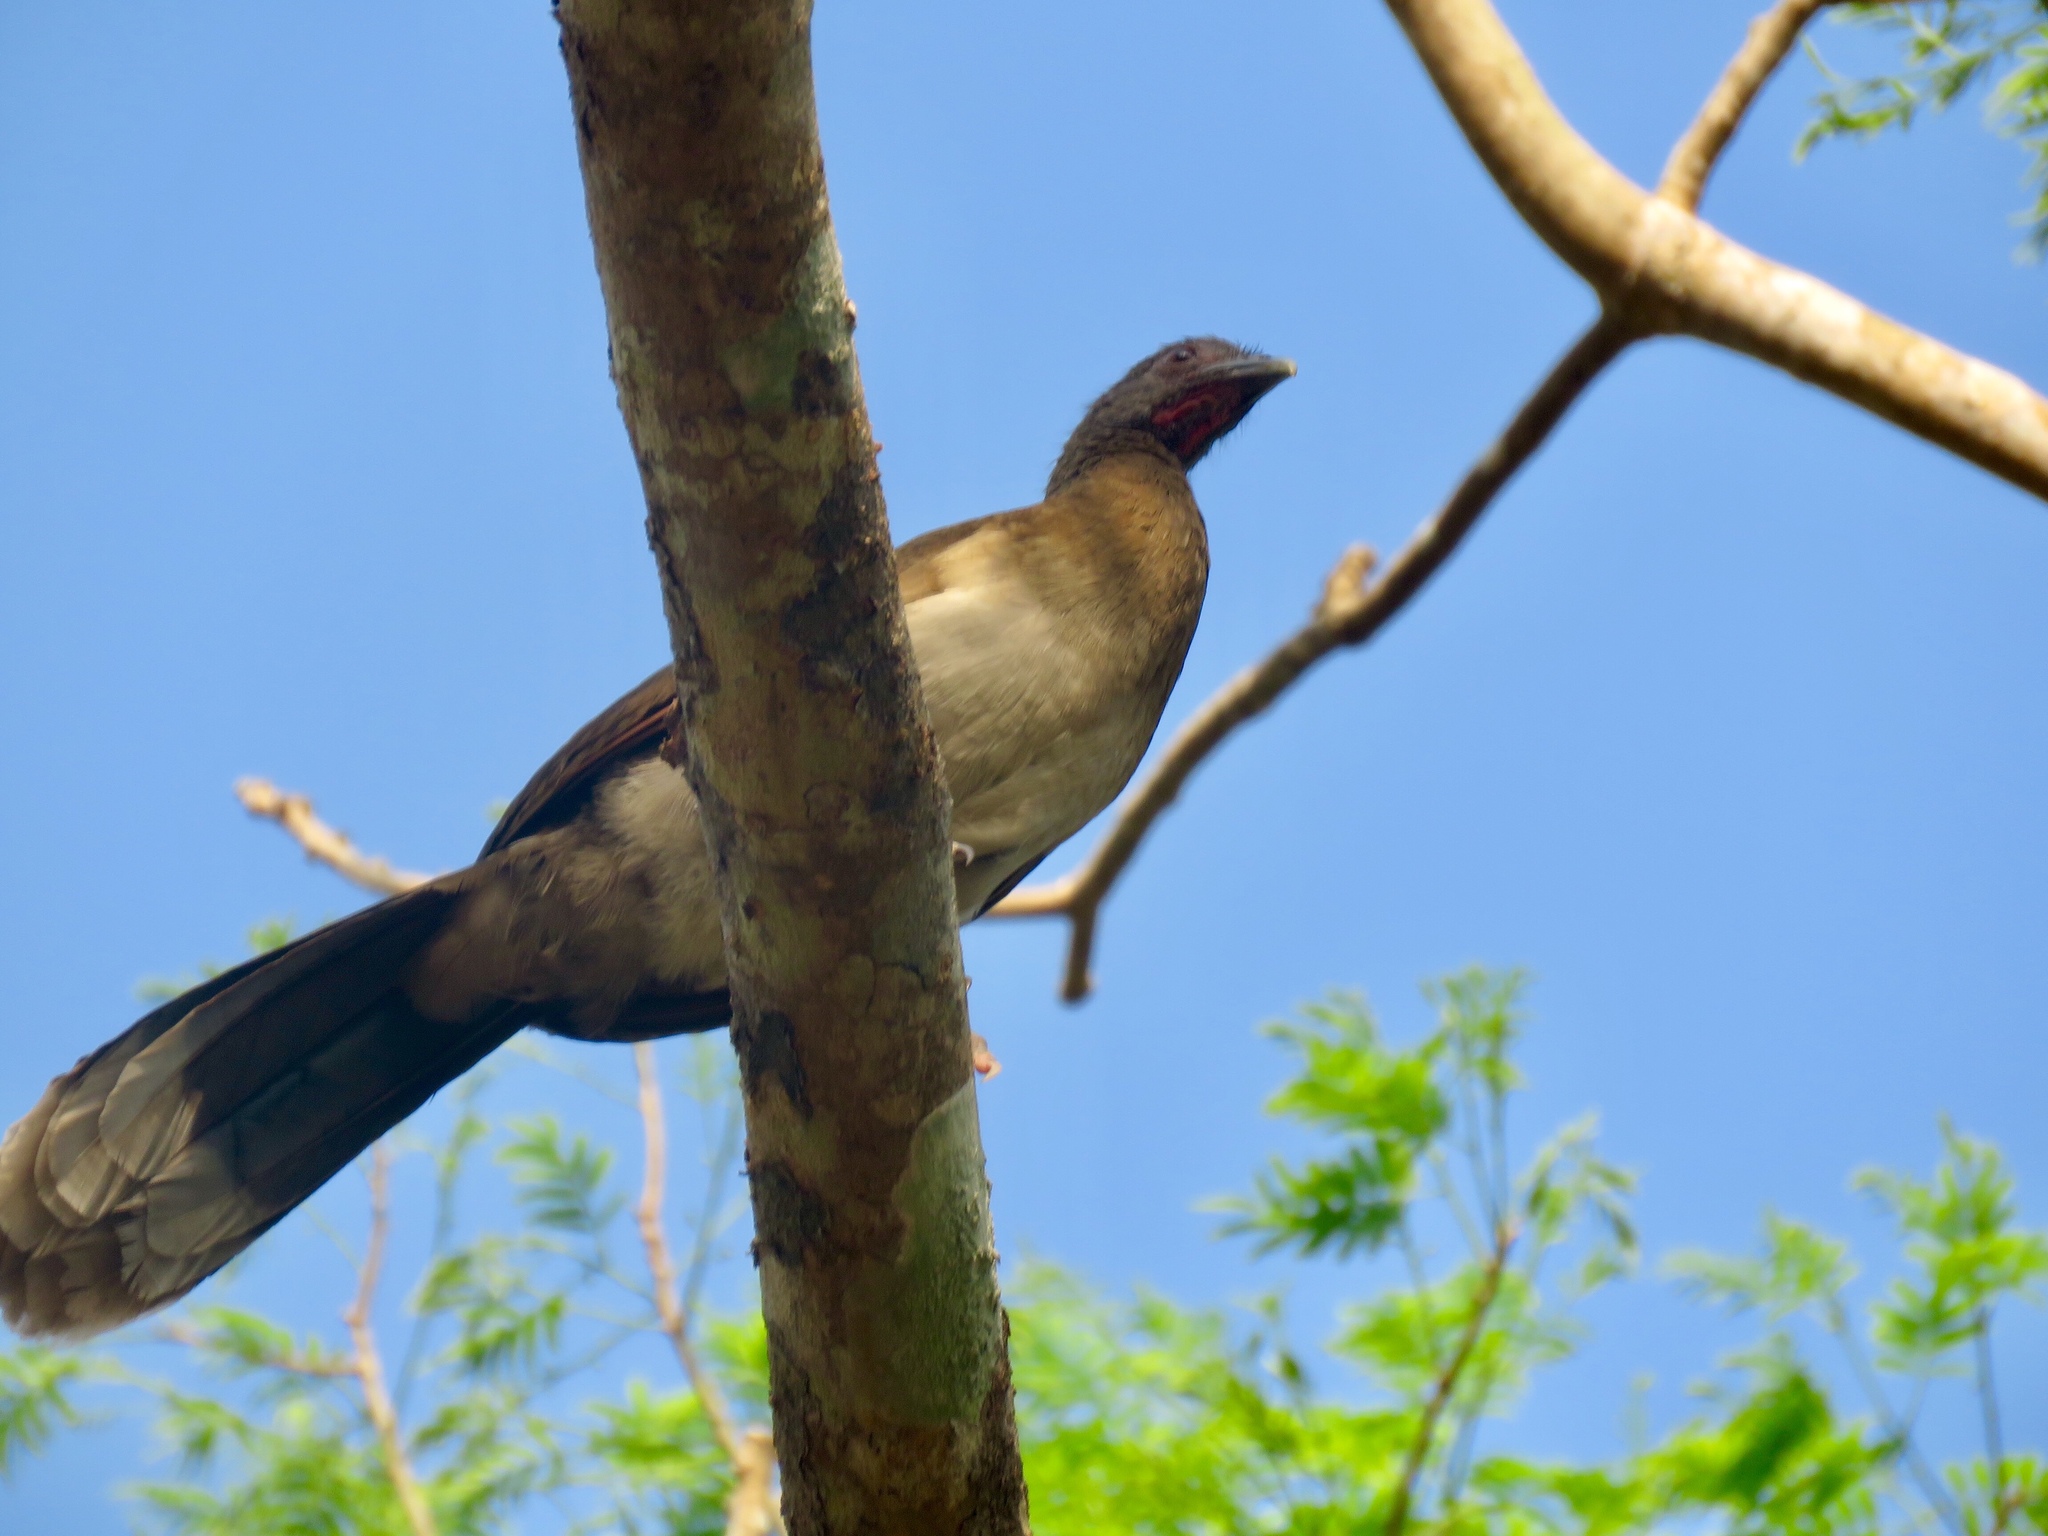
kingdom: Animalia
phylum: Chordata
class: Aves
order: Galliformes
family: Cracidae
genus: Ortalis
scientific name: Ortalis cinereiceps
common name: Grey-headed chachalaca
